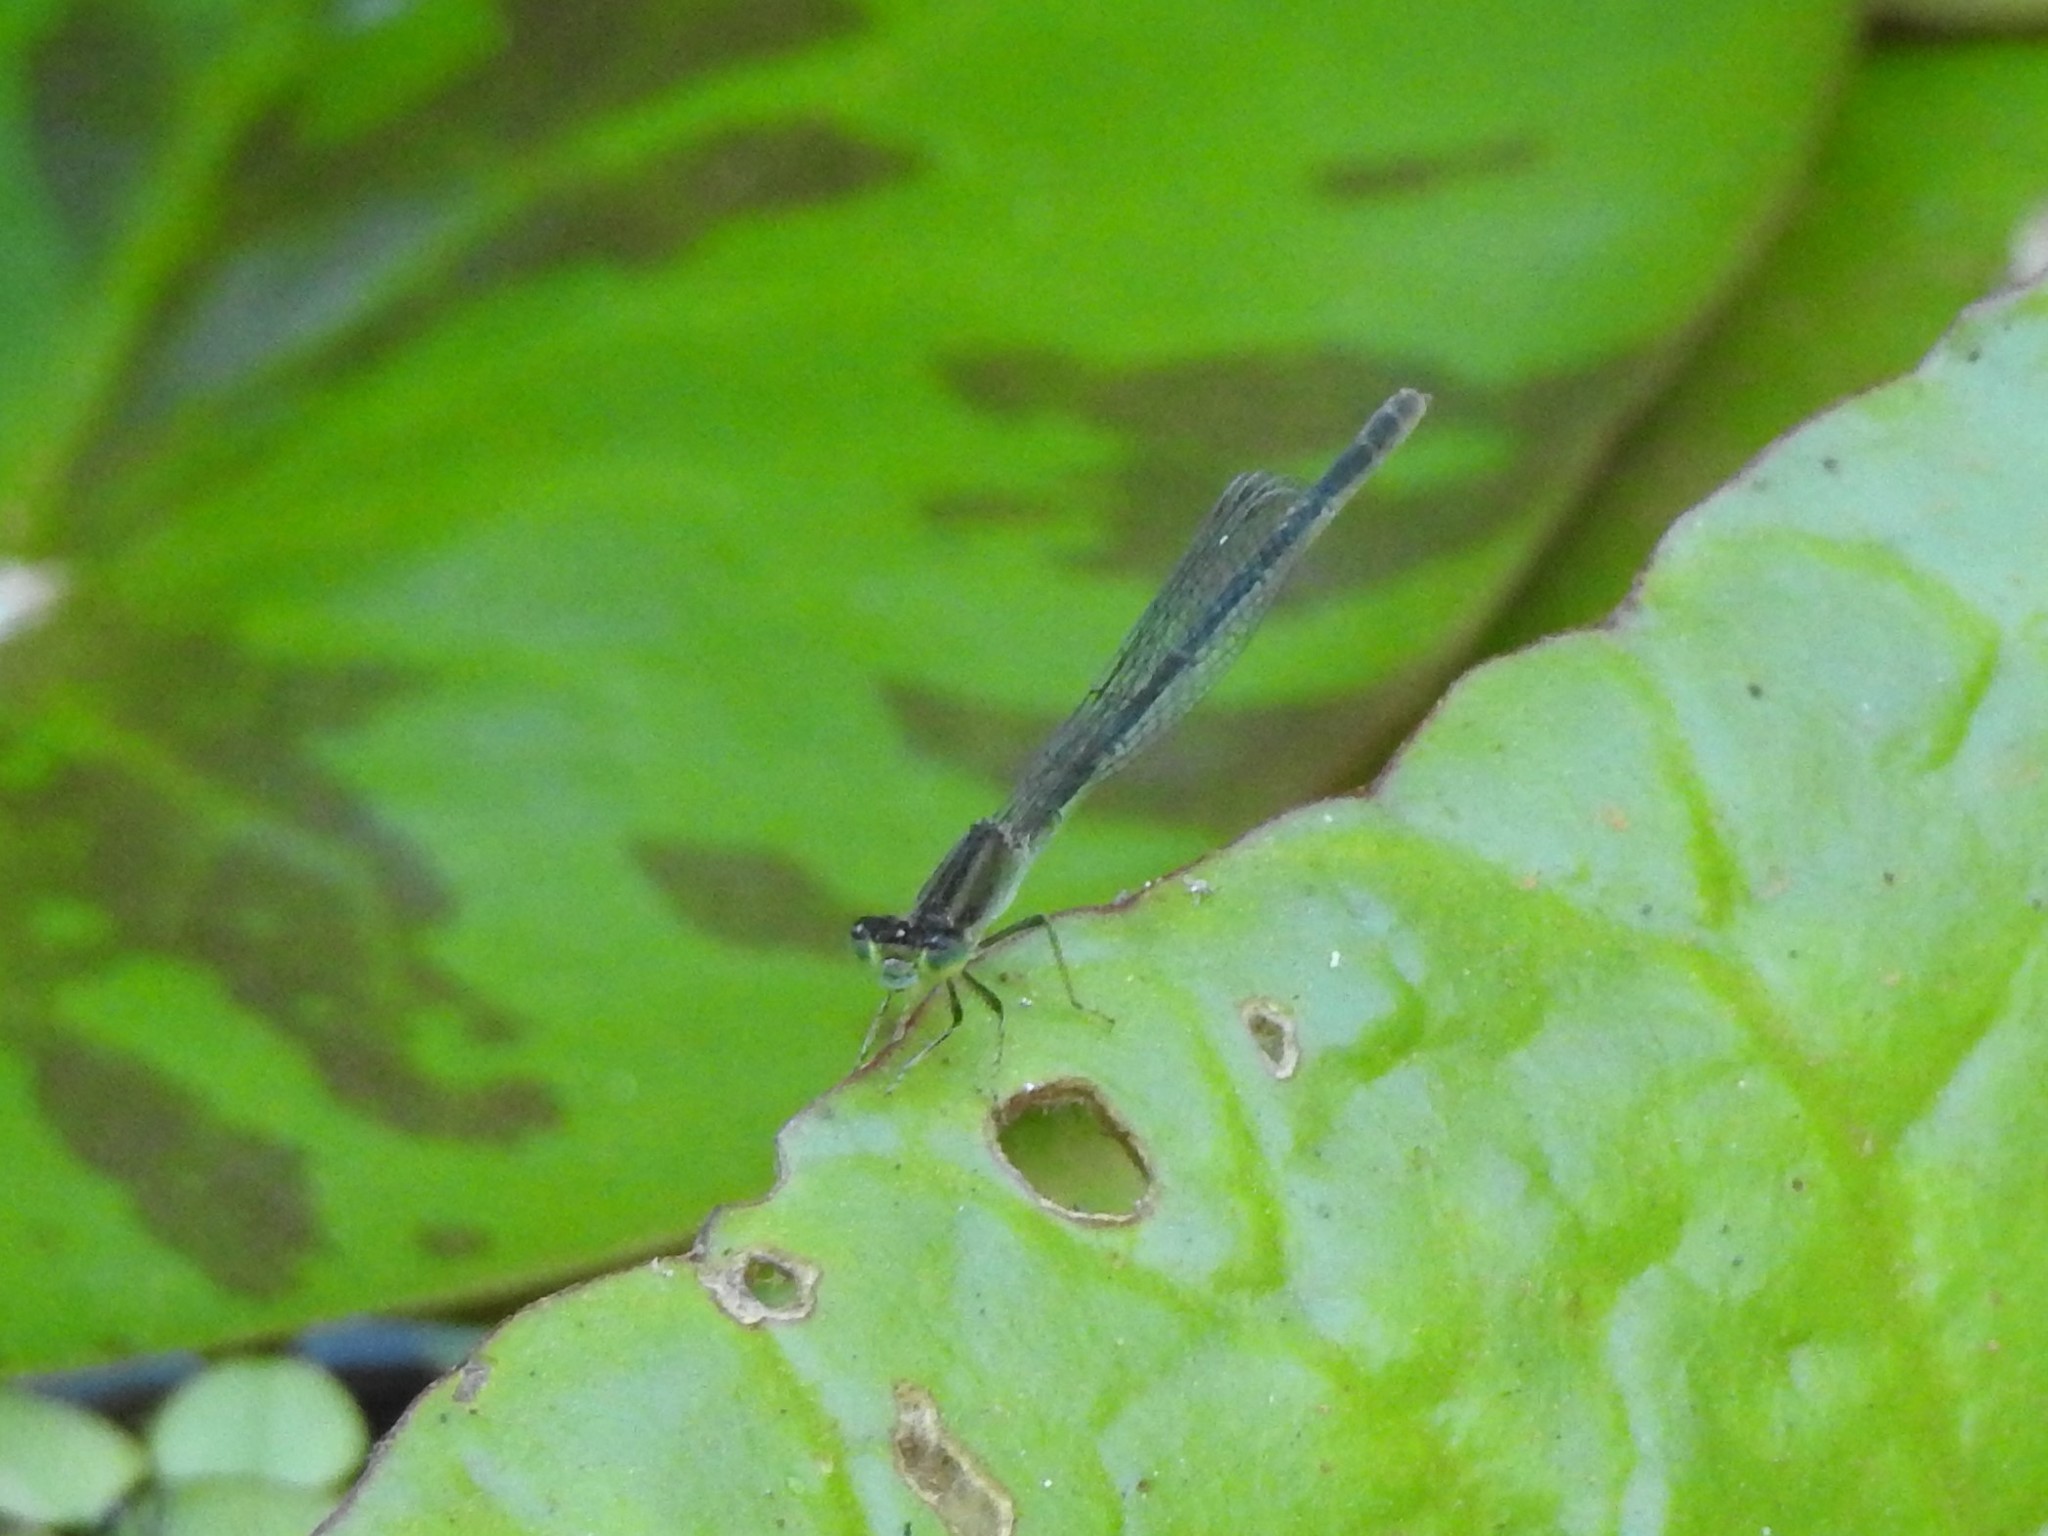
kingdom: Animalia
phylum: Arthropoda
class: Insecta
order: Odonata
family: Coenagrionidae
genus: Ischnura
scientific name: Ischnura fluviatilis
